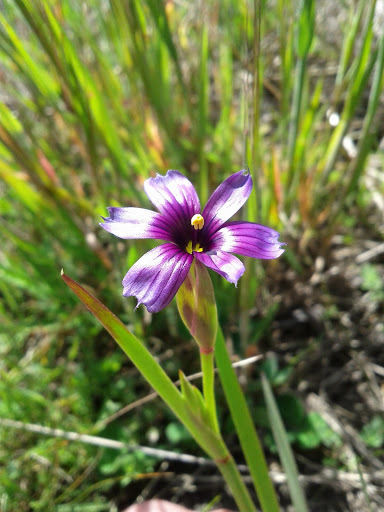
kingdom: Plantae
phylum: Tracheophyta
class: Liliopsida
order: Asparagales
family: Iridaceae
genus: Sisyrinchium
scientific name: Sisyrinchium bellum
